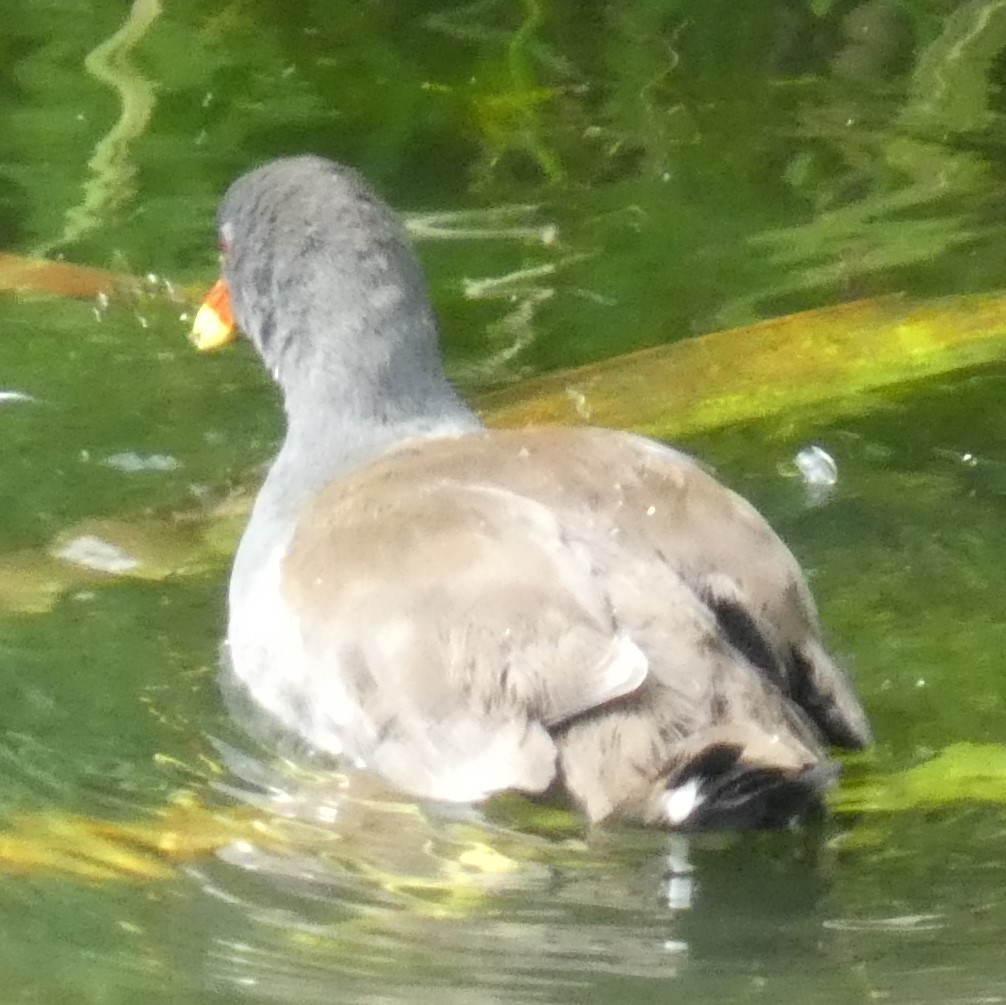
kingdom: Animalia
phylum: Chordata
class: Aves
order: Gruiformes
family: Rallidae
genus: Gallinula
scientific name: Gallinula chloropus
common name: Common moorhen
